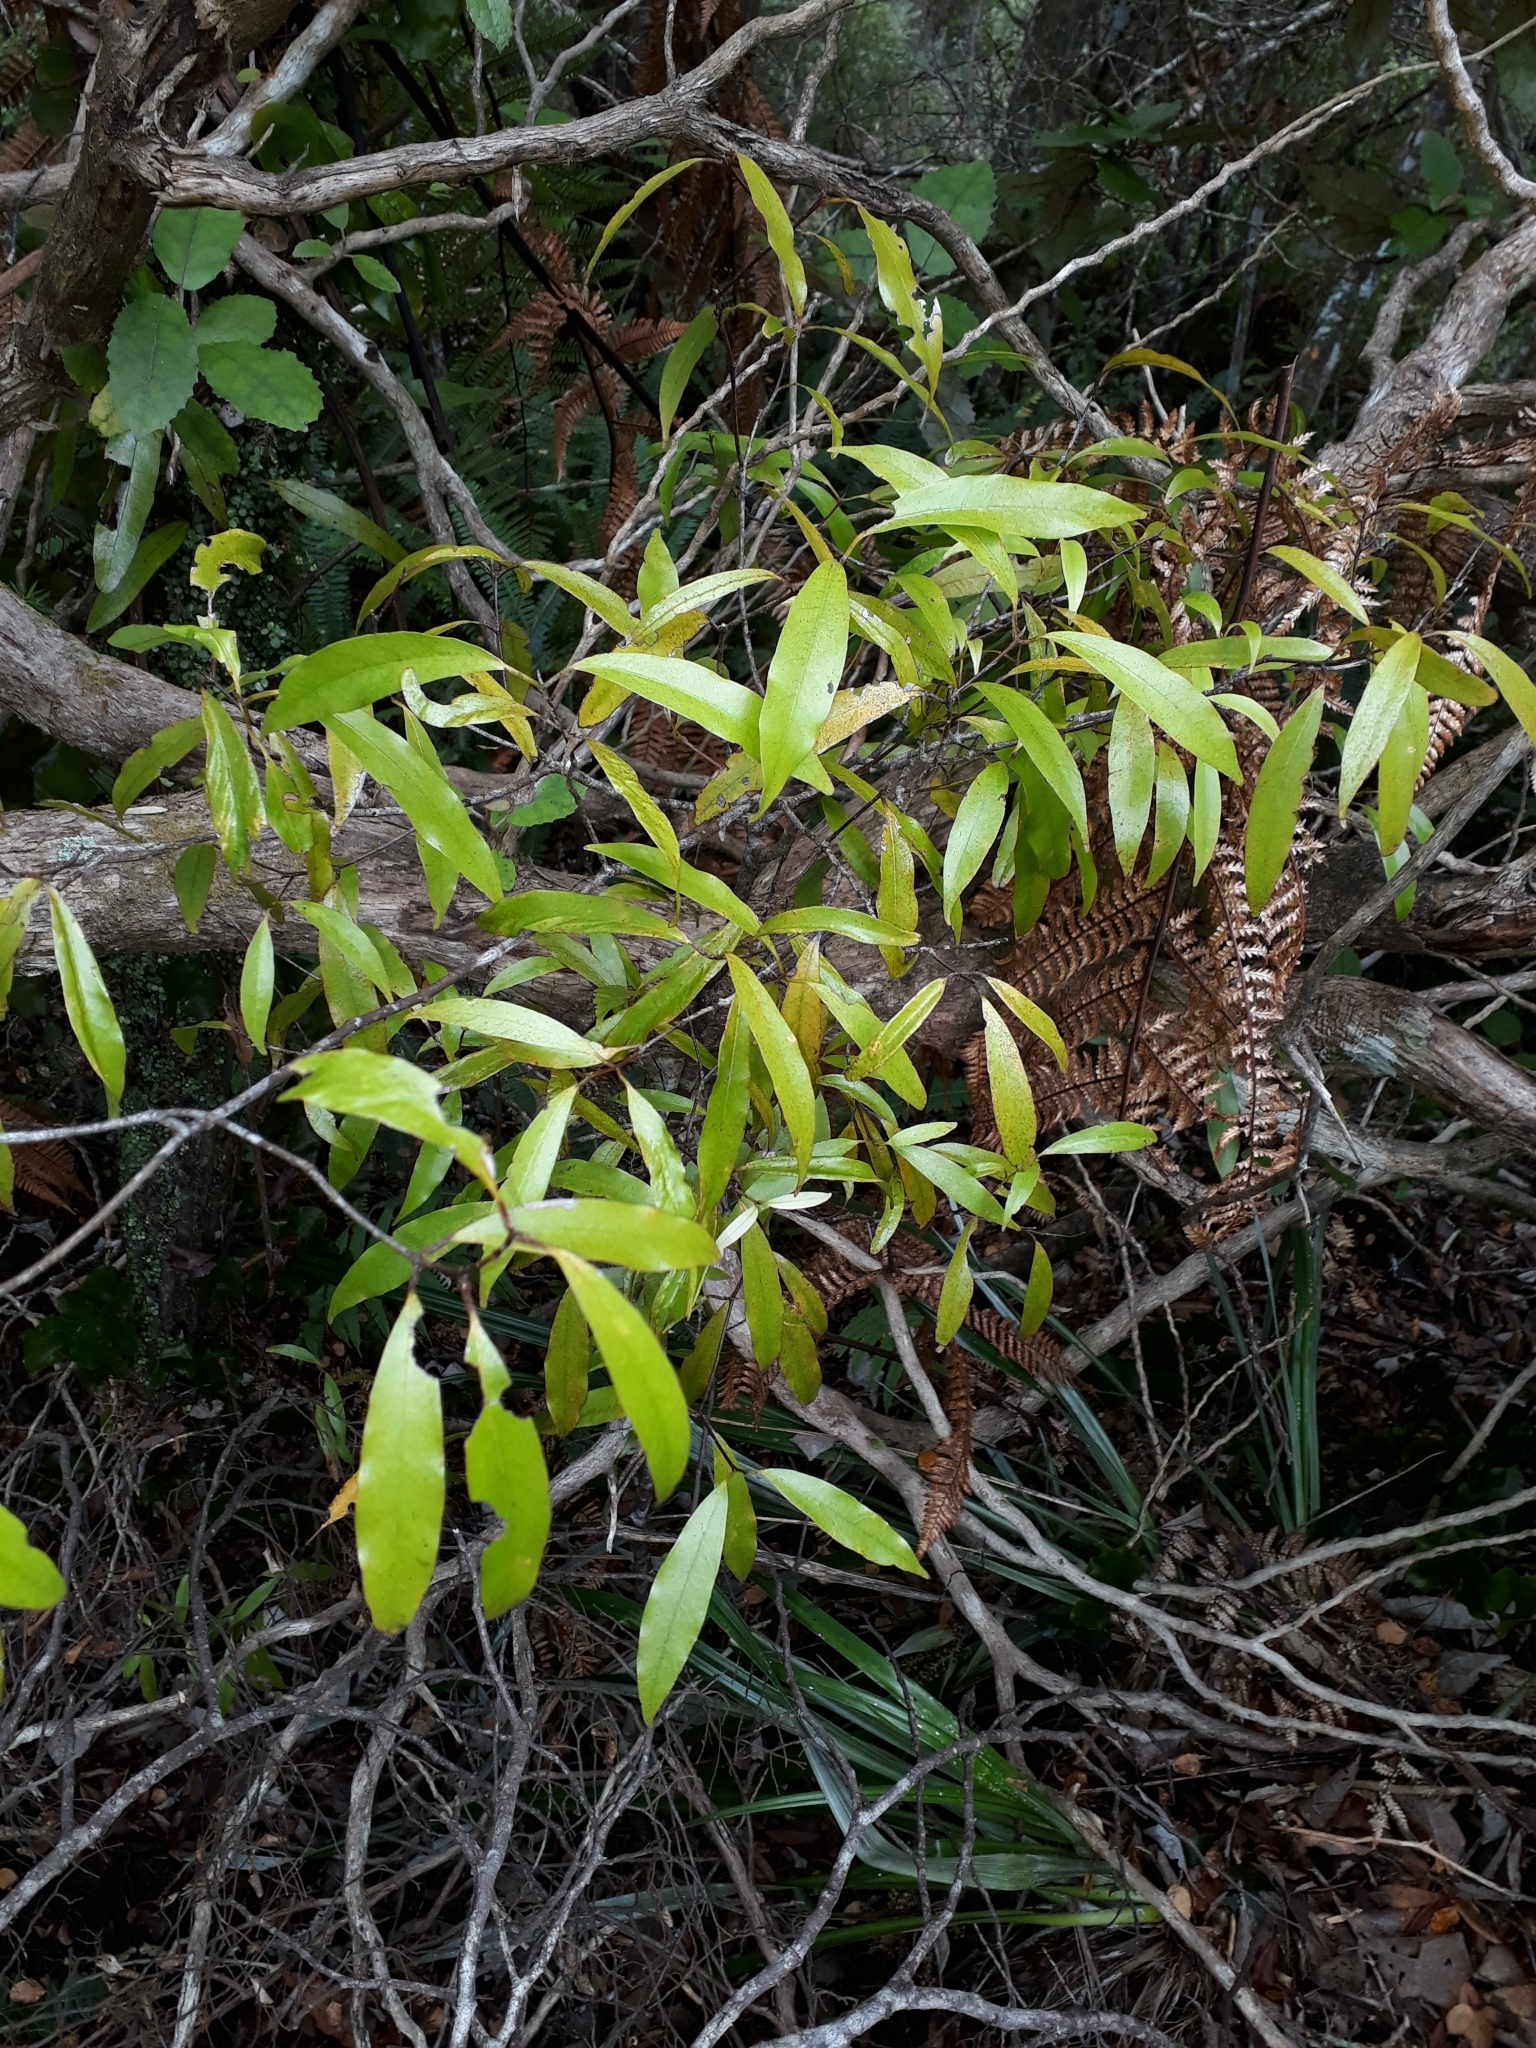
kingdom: Plantae
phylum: Tracheophyta
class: Magnoliopsida
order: Laurales
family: Lauraceae
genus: Beilschmiedia
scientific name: Beilschmiedia tawa
